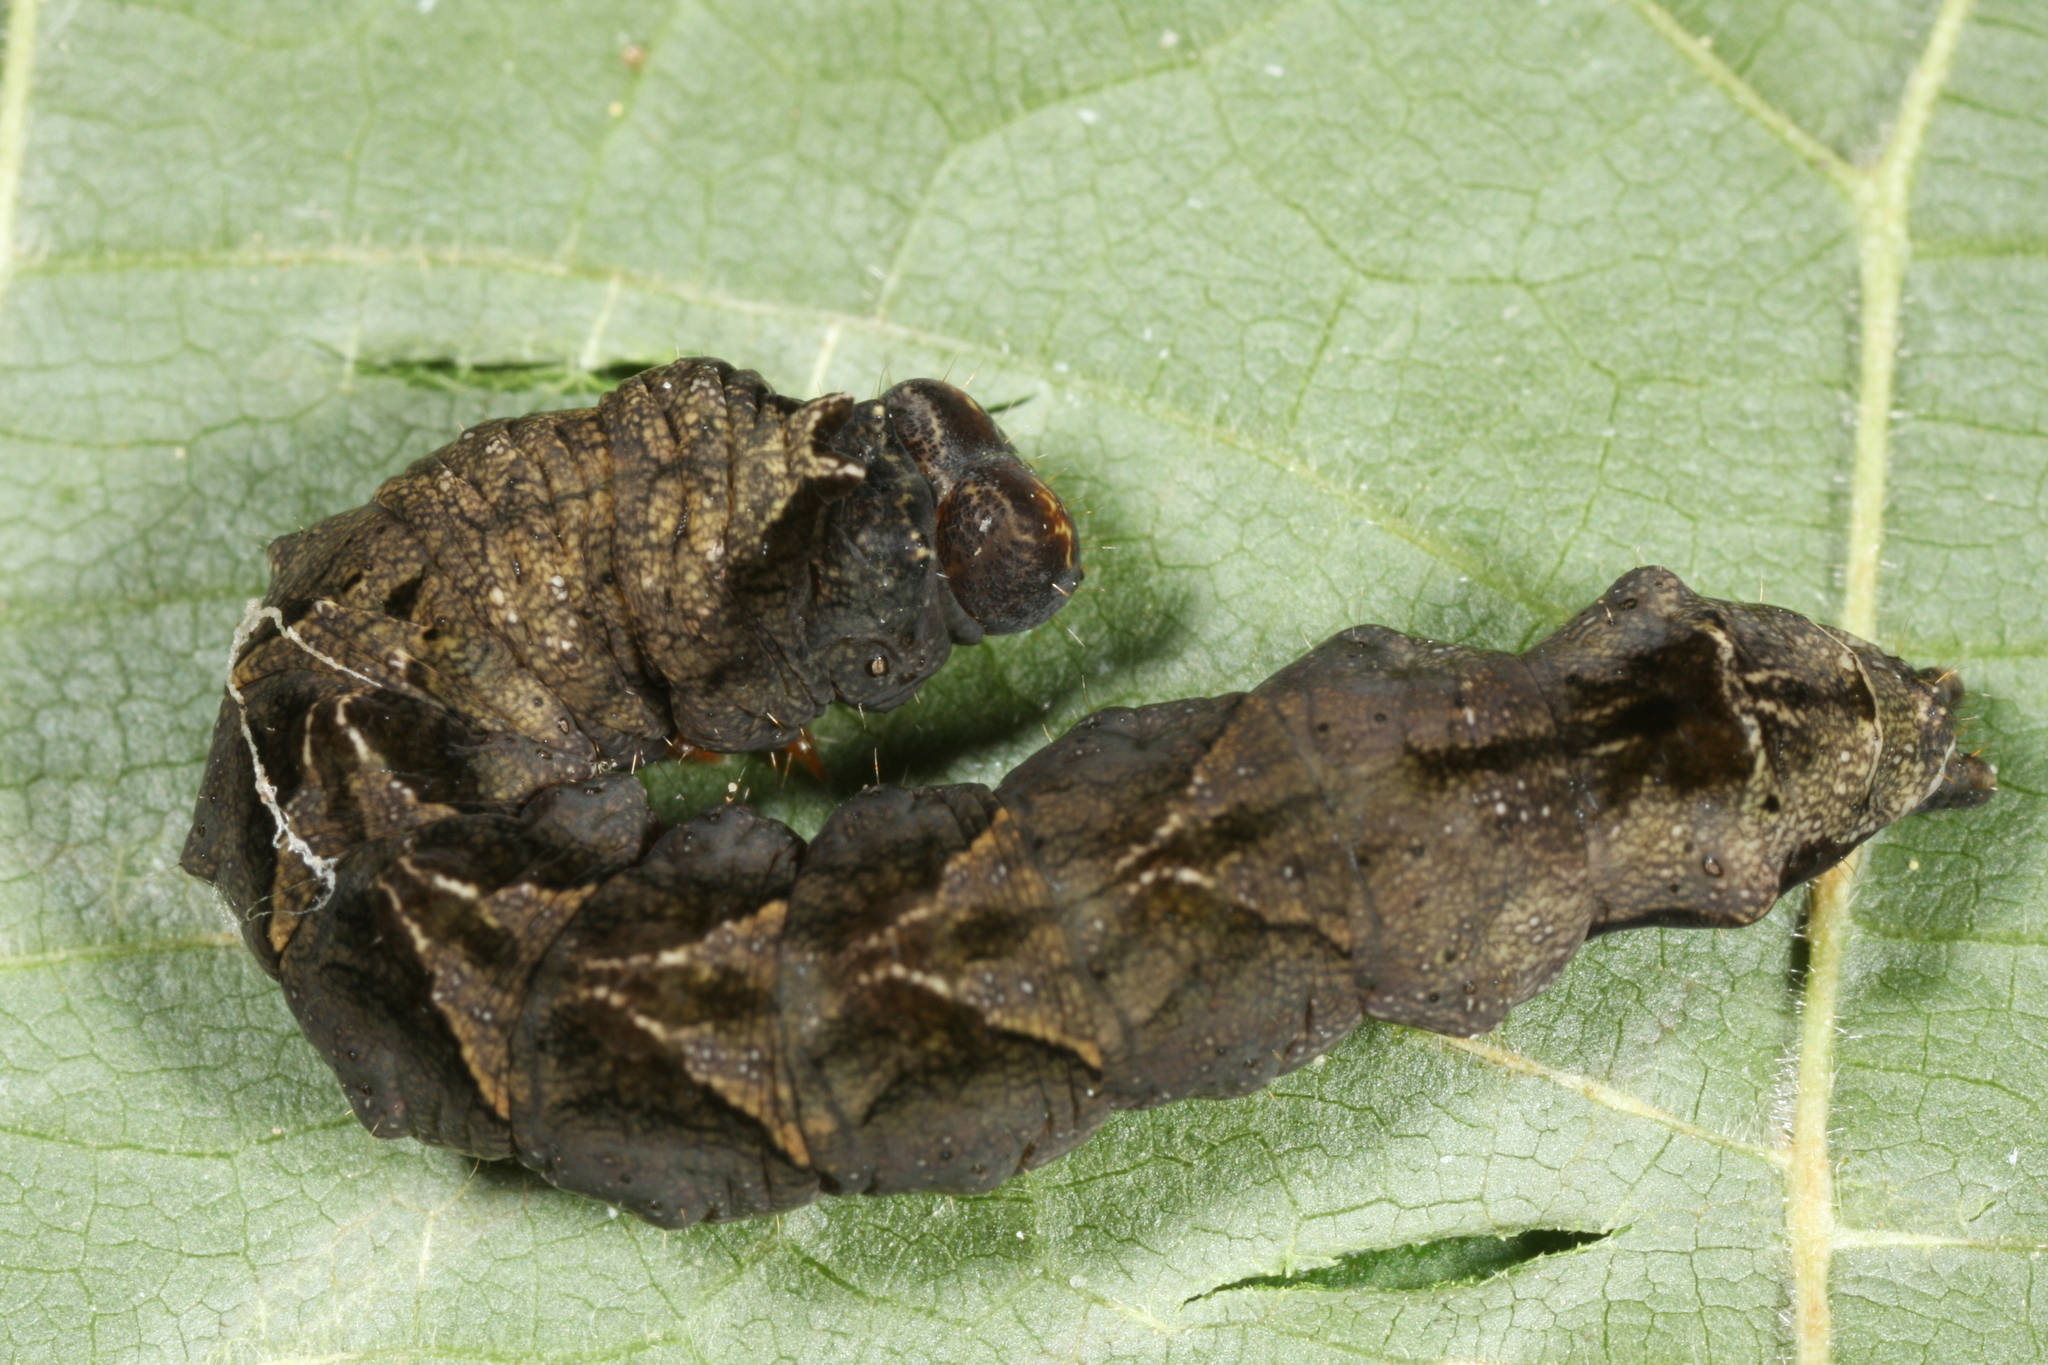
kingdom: Animalia
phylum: Arthropoda
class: Insecta
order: Lepidoptera
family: Drepanidae
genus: Thyatira
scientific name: Thyatira batis
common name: Peach blossom
